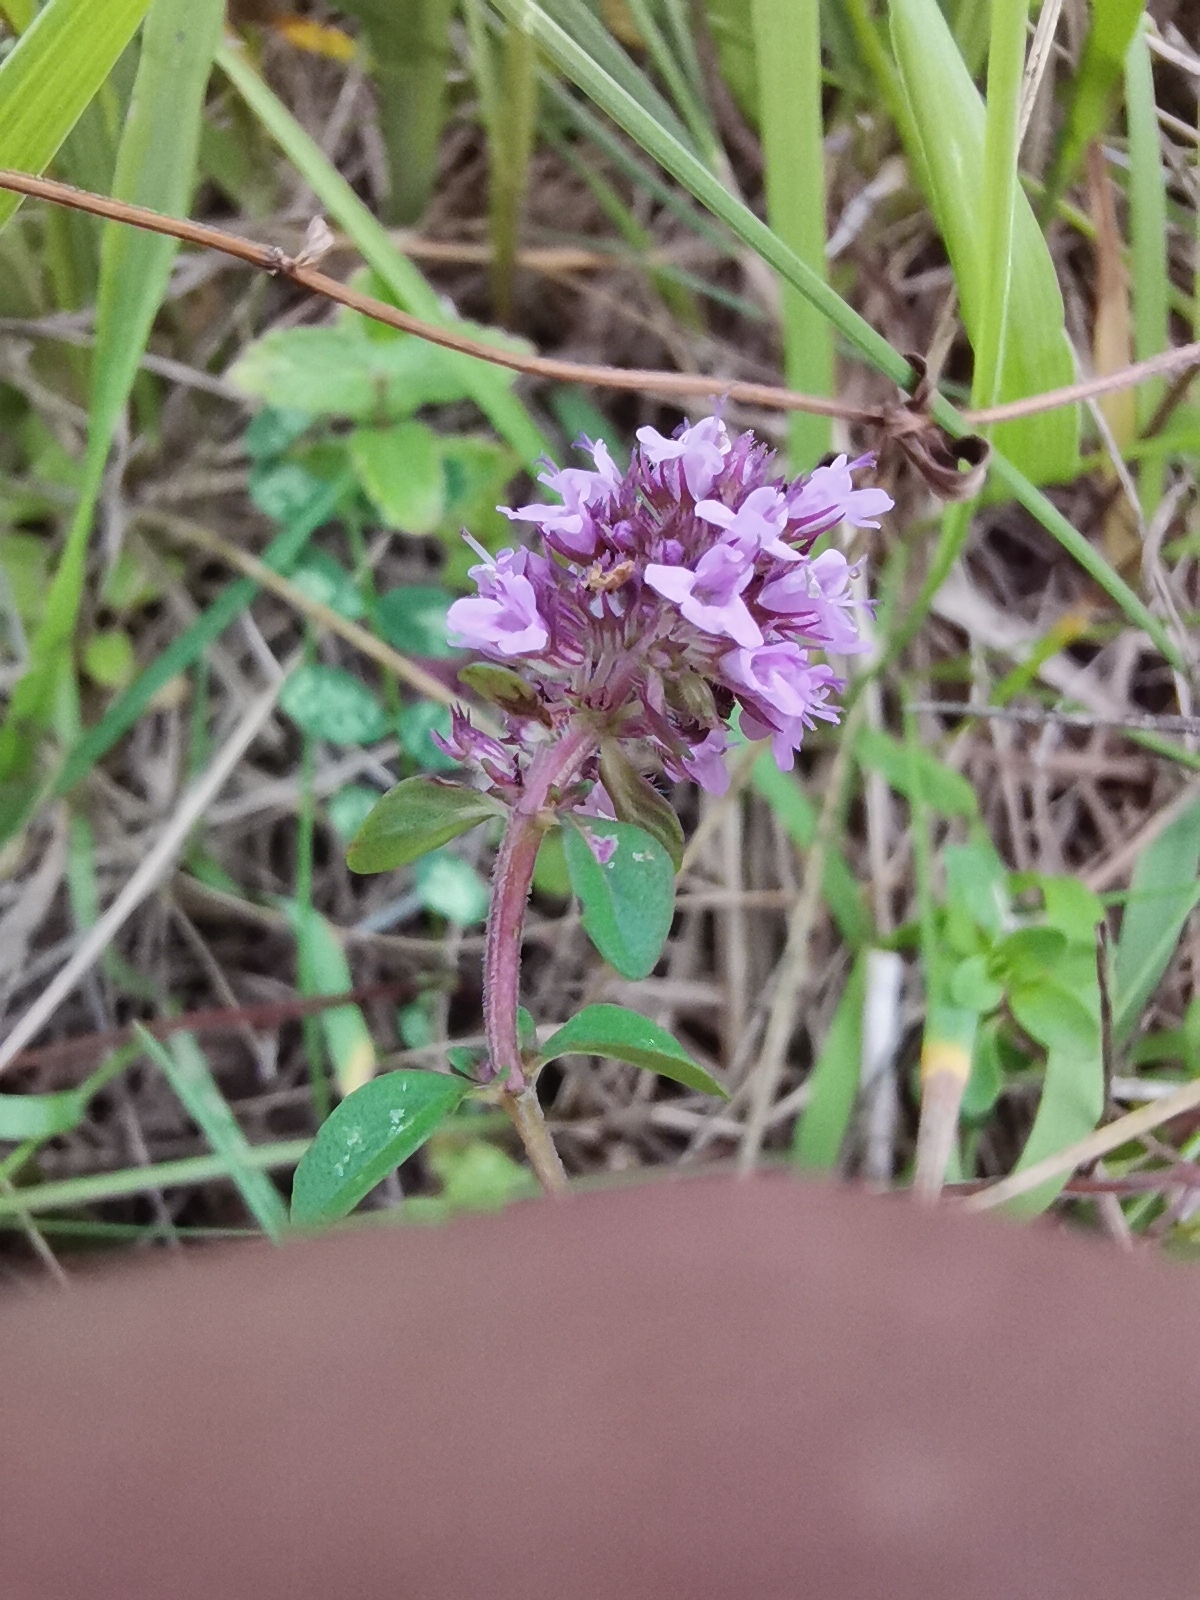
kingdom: Plantae
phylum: Tracheophyta
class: Magnoliopsida
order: Lamiales
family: Lamiaceae
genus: Thymus
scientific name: Thymus pulegioides
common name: Large thyme
